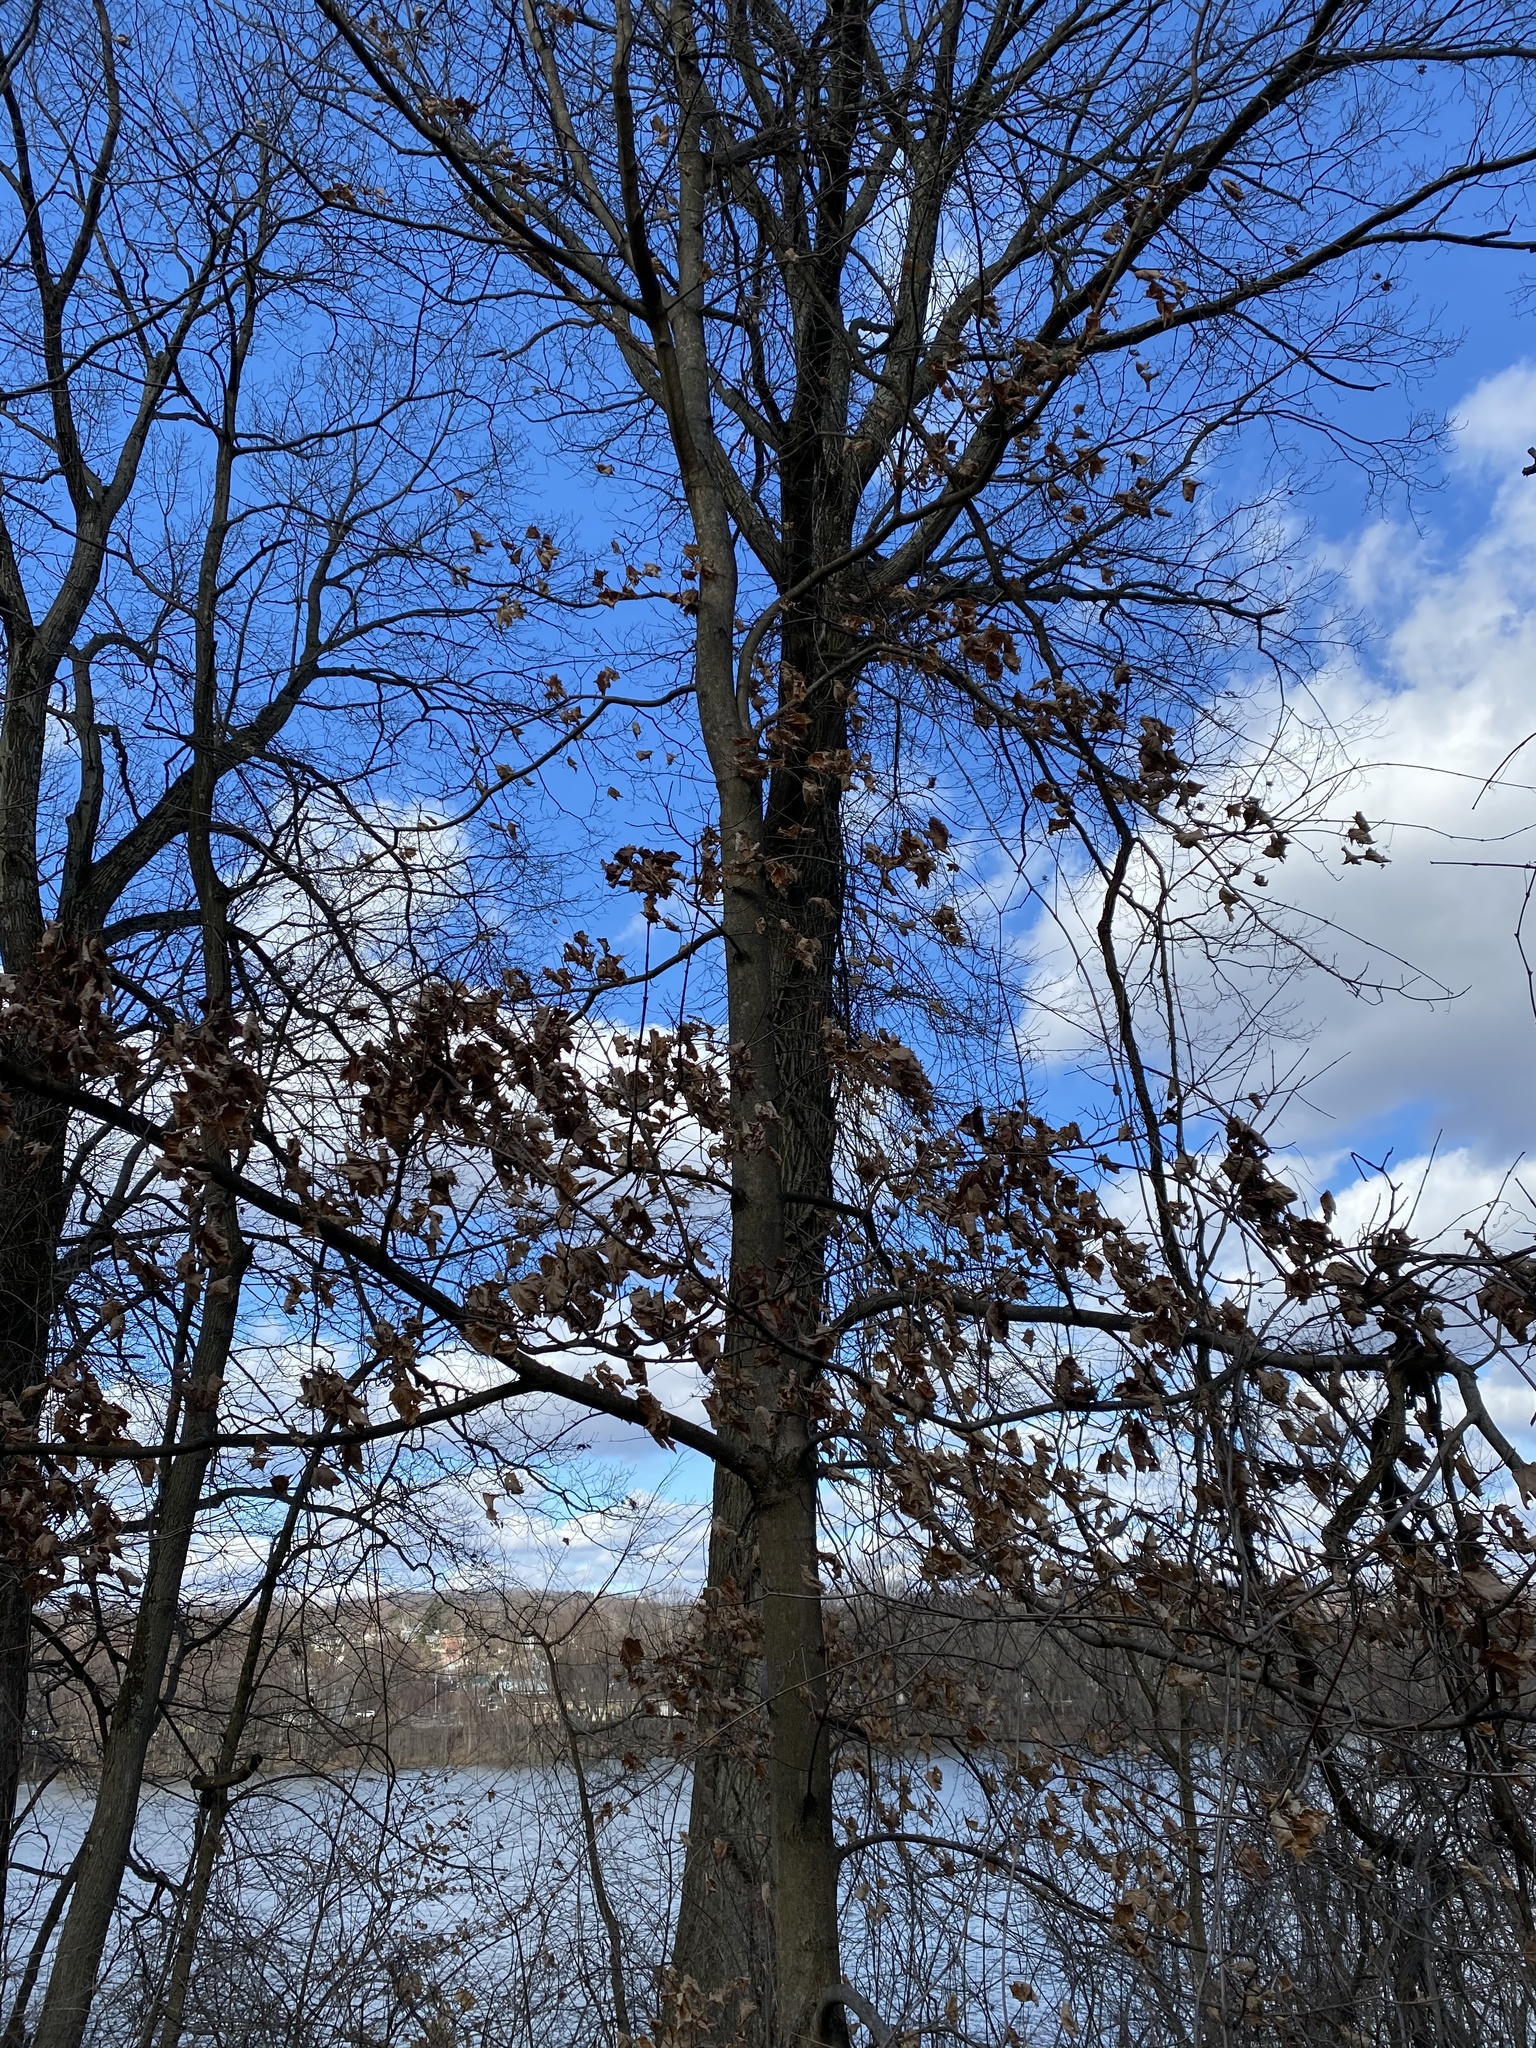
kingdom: Plantae
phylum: Tracheophyta
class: Magnoliopsida
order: Sapindales
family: Sapindaceae
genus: Acer
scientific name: Acer platanoides
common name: Norway maple
